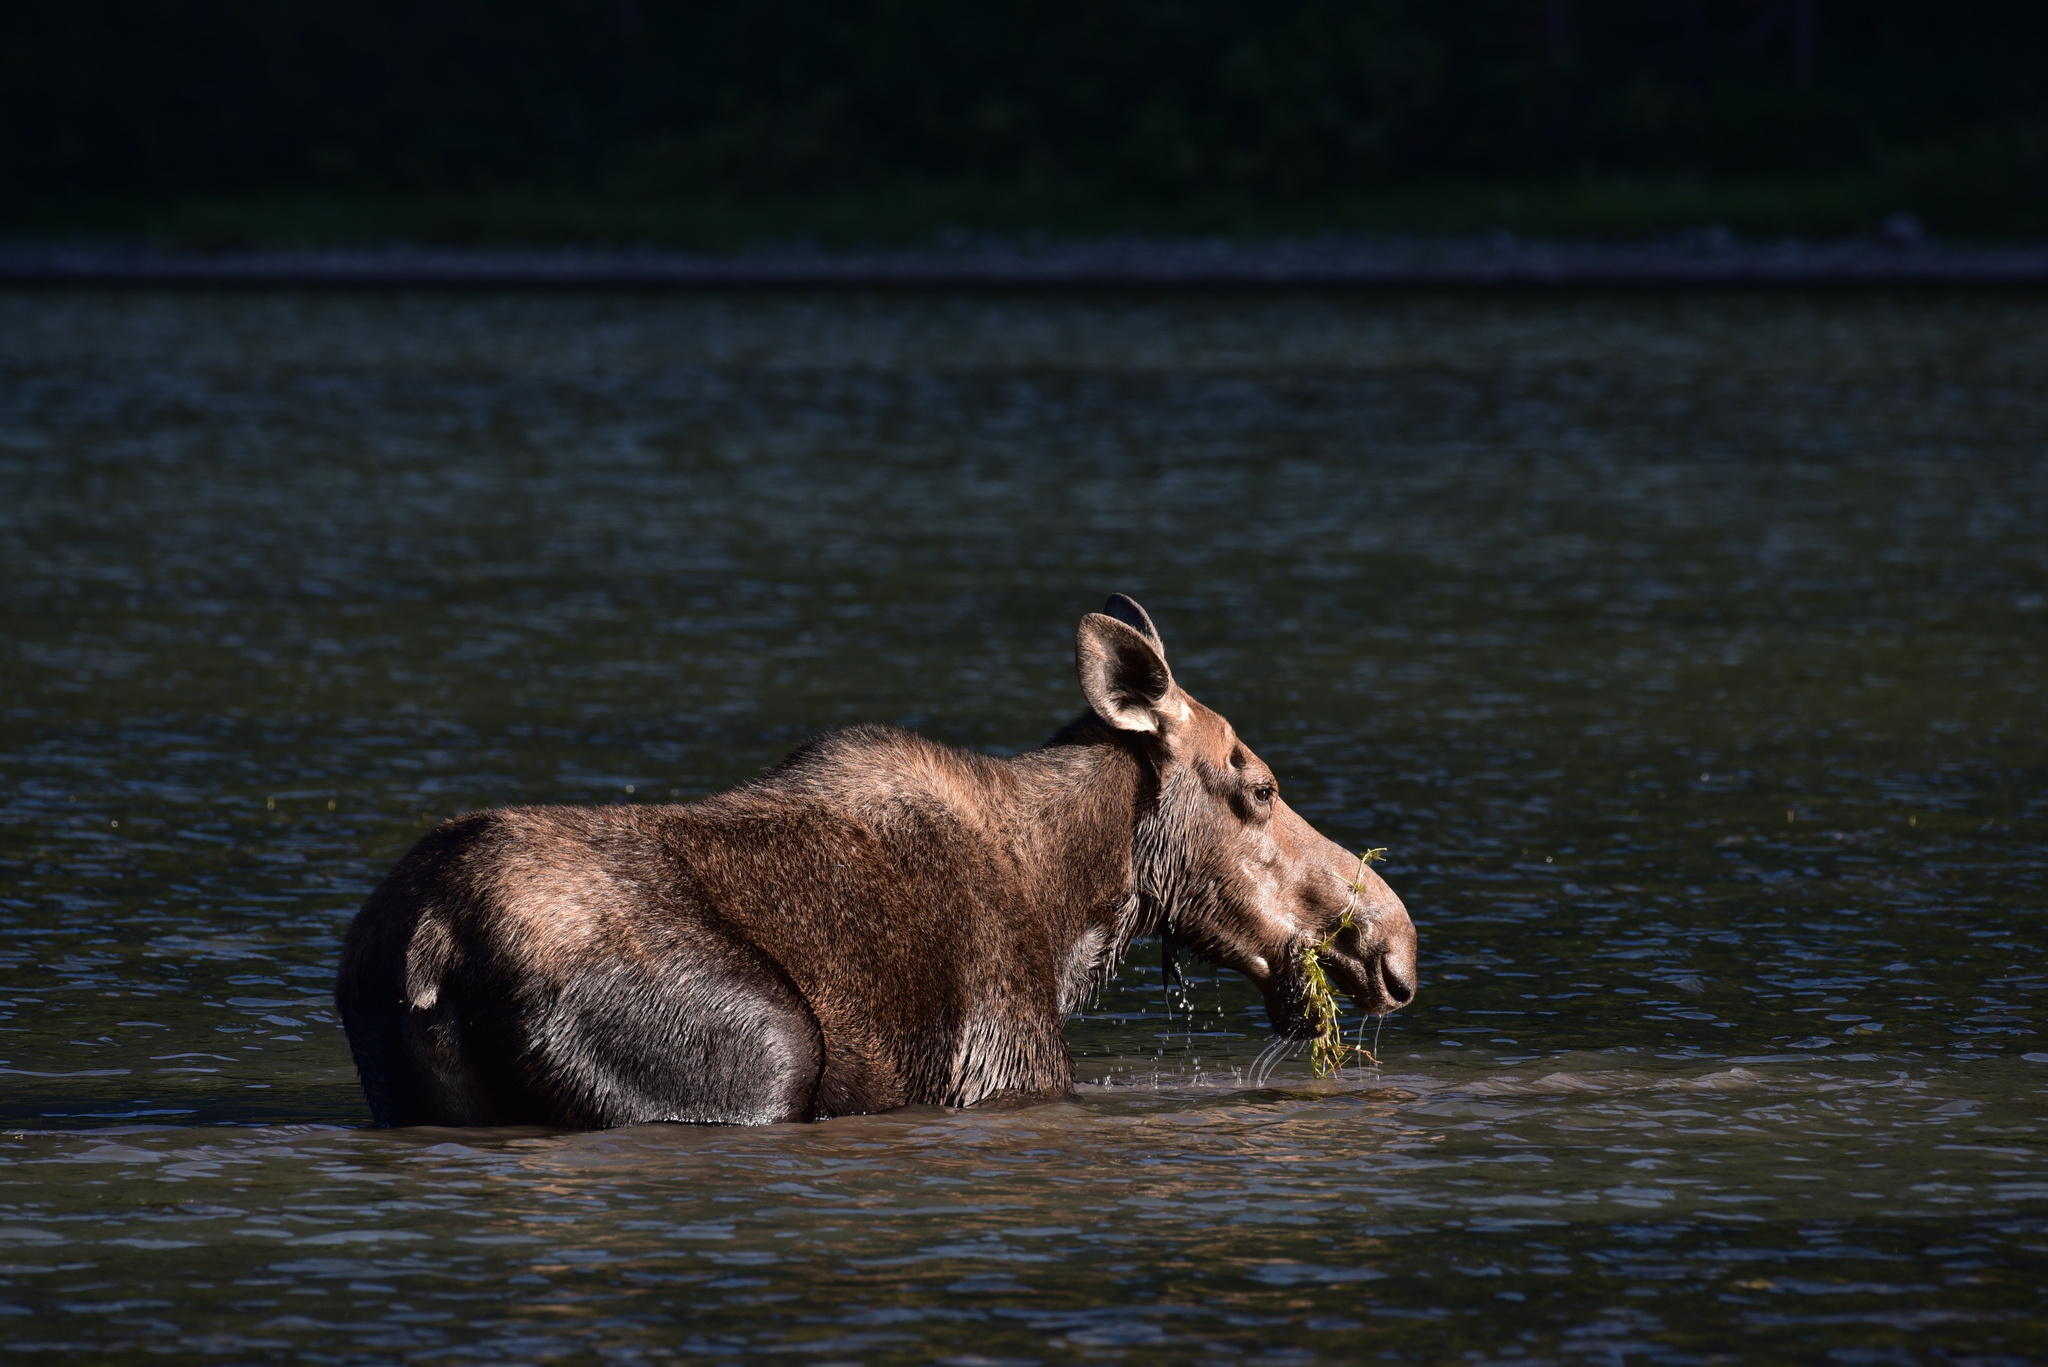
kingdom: Animalia
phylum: Chordata
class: Mammalia
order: Artiodactyla
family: Cervidae
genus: Alces
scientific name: Alces americanus
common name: Moose
